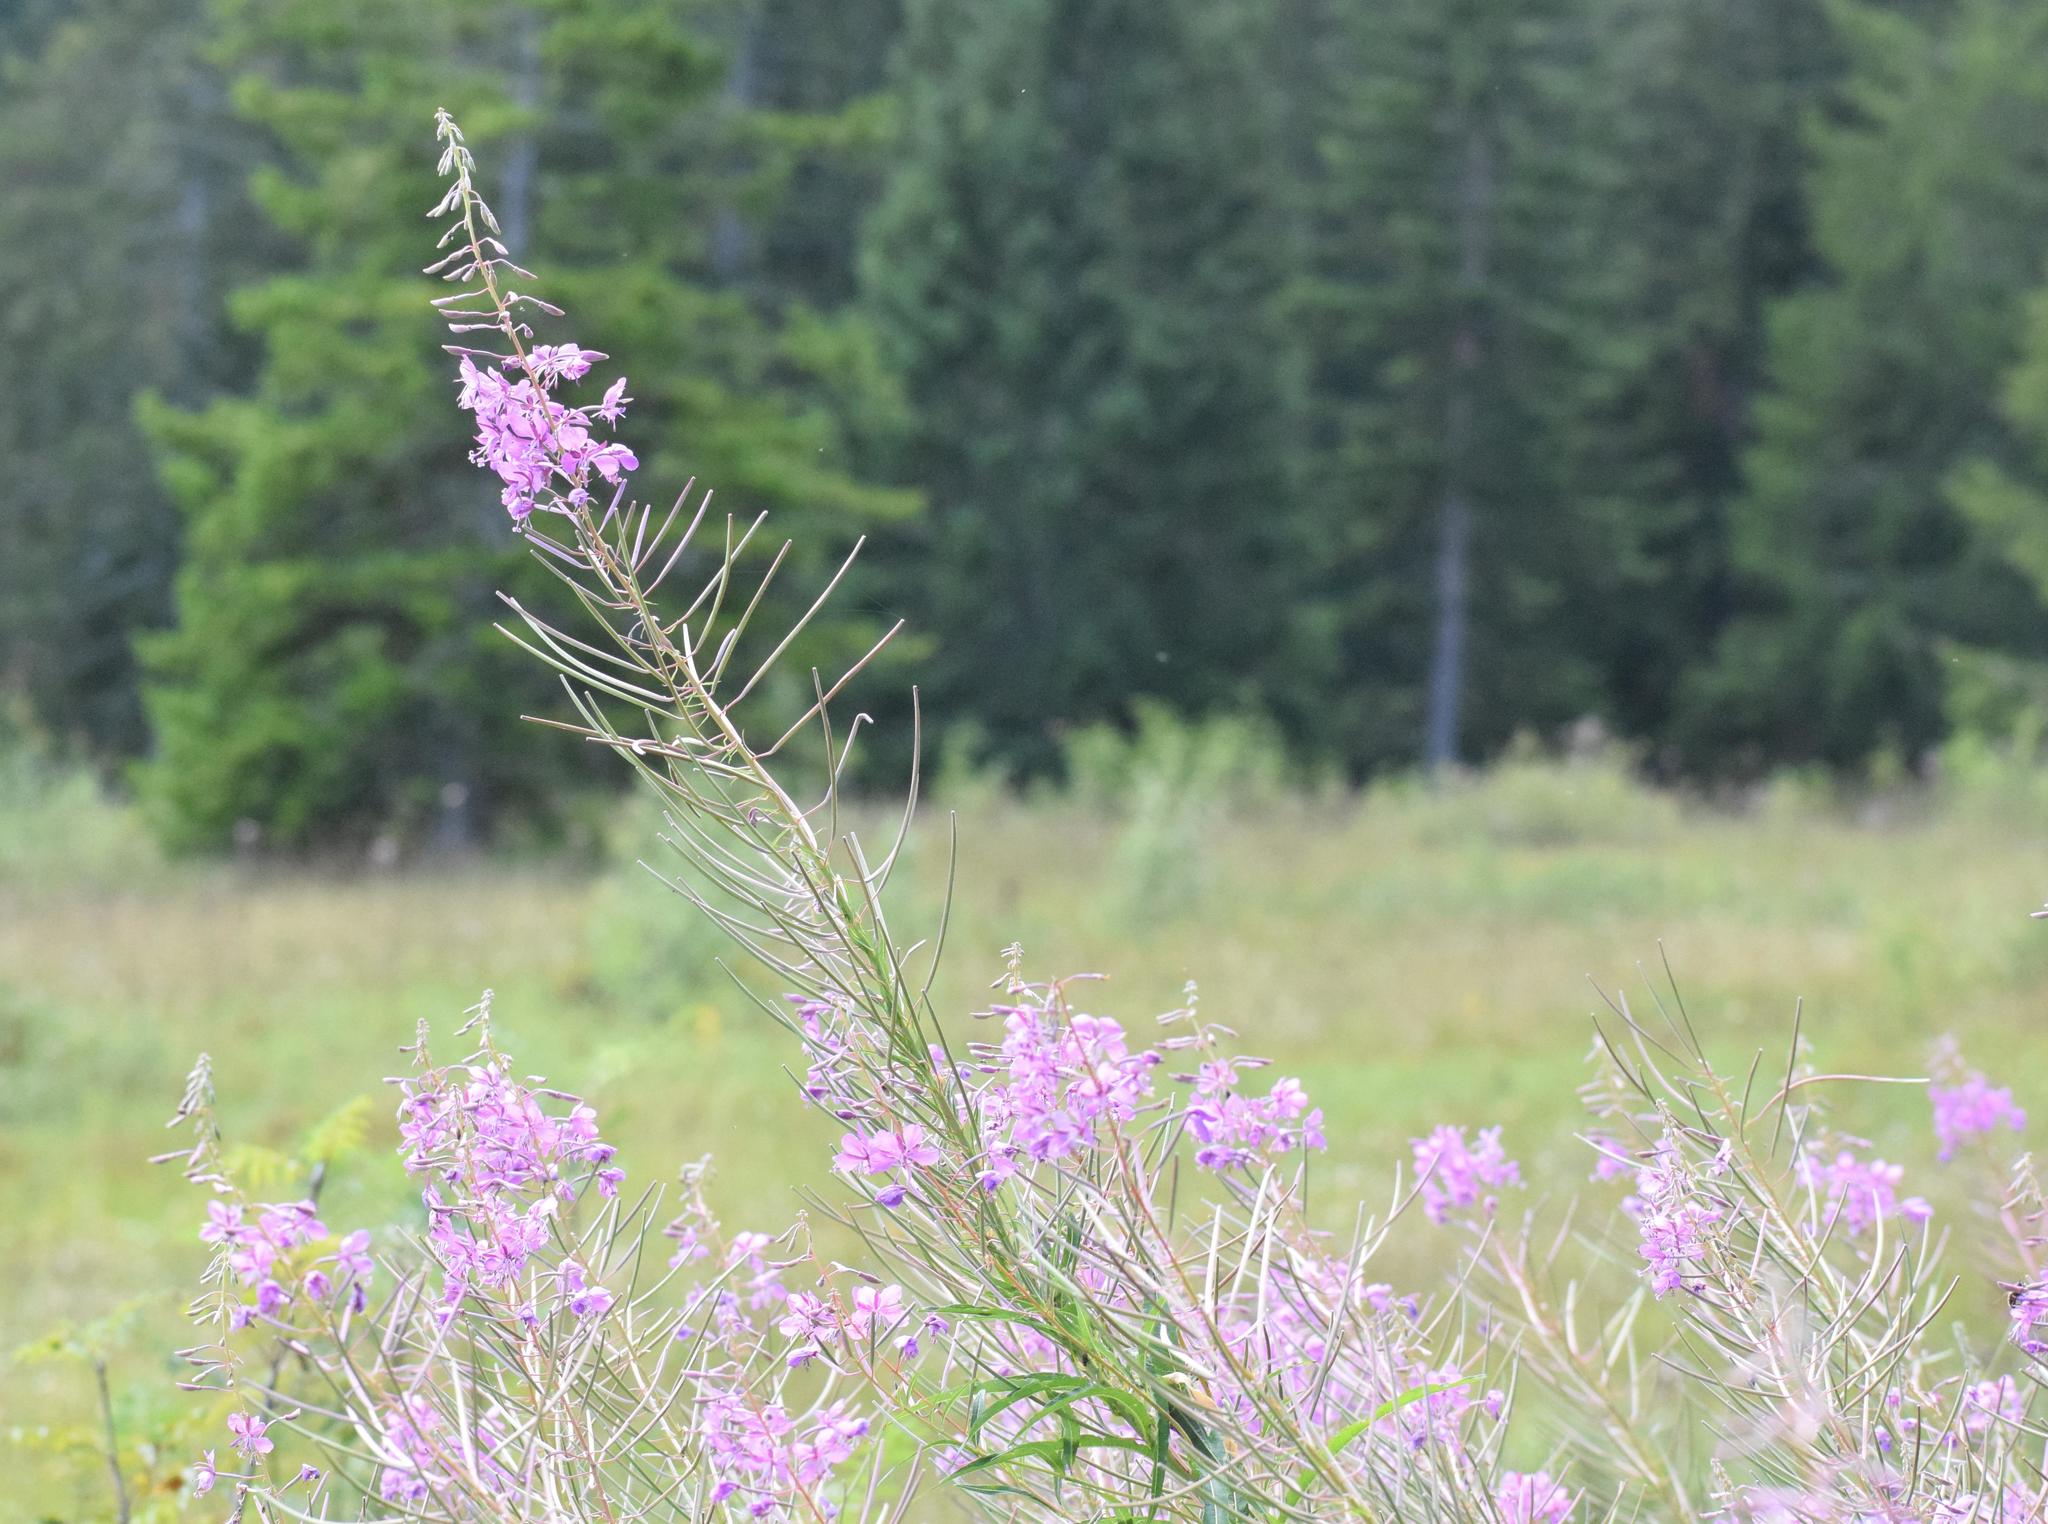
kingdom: Plantae
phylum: Tracheophyta
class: Magnoliopsida
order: Myrtales
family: Onagraceae
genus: Chamaenerion
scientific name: Chamaenerion angustifolium
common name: Fireweed
